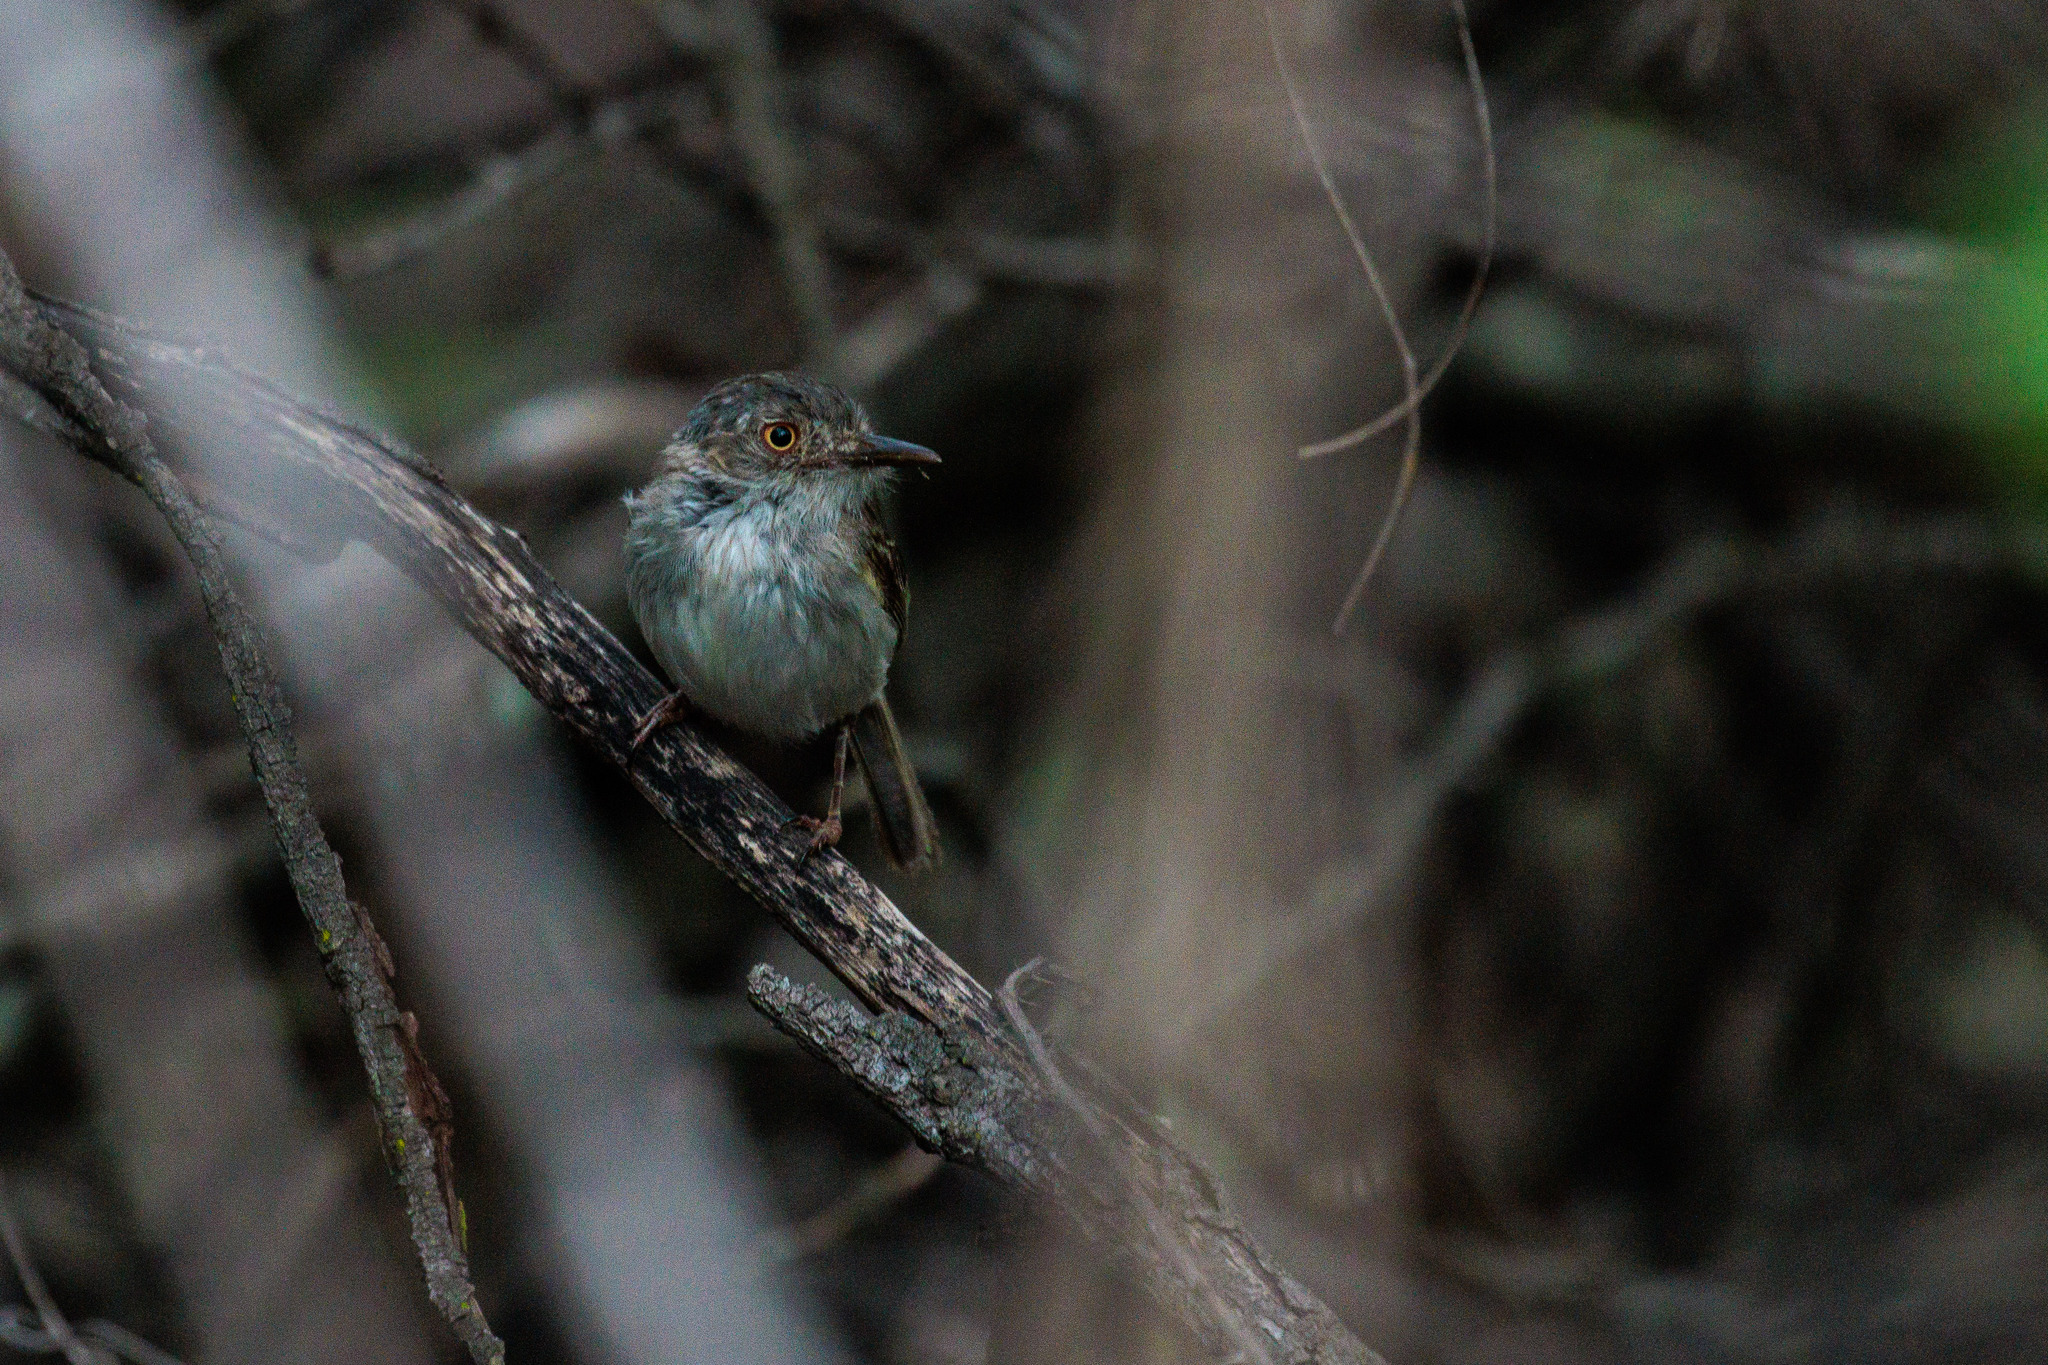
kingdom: Animalia
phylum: Chordata
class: Aves
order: Passeriformes
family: Tyrannidae
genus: Hemitriccus
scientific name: Hemitriccus margaritaceiventer
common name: Pearly-vented tody-tyrant
